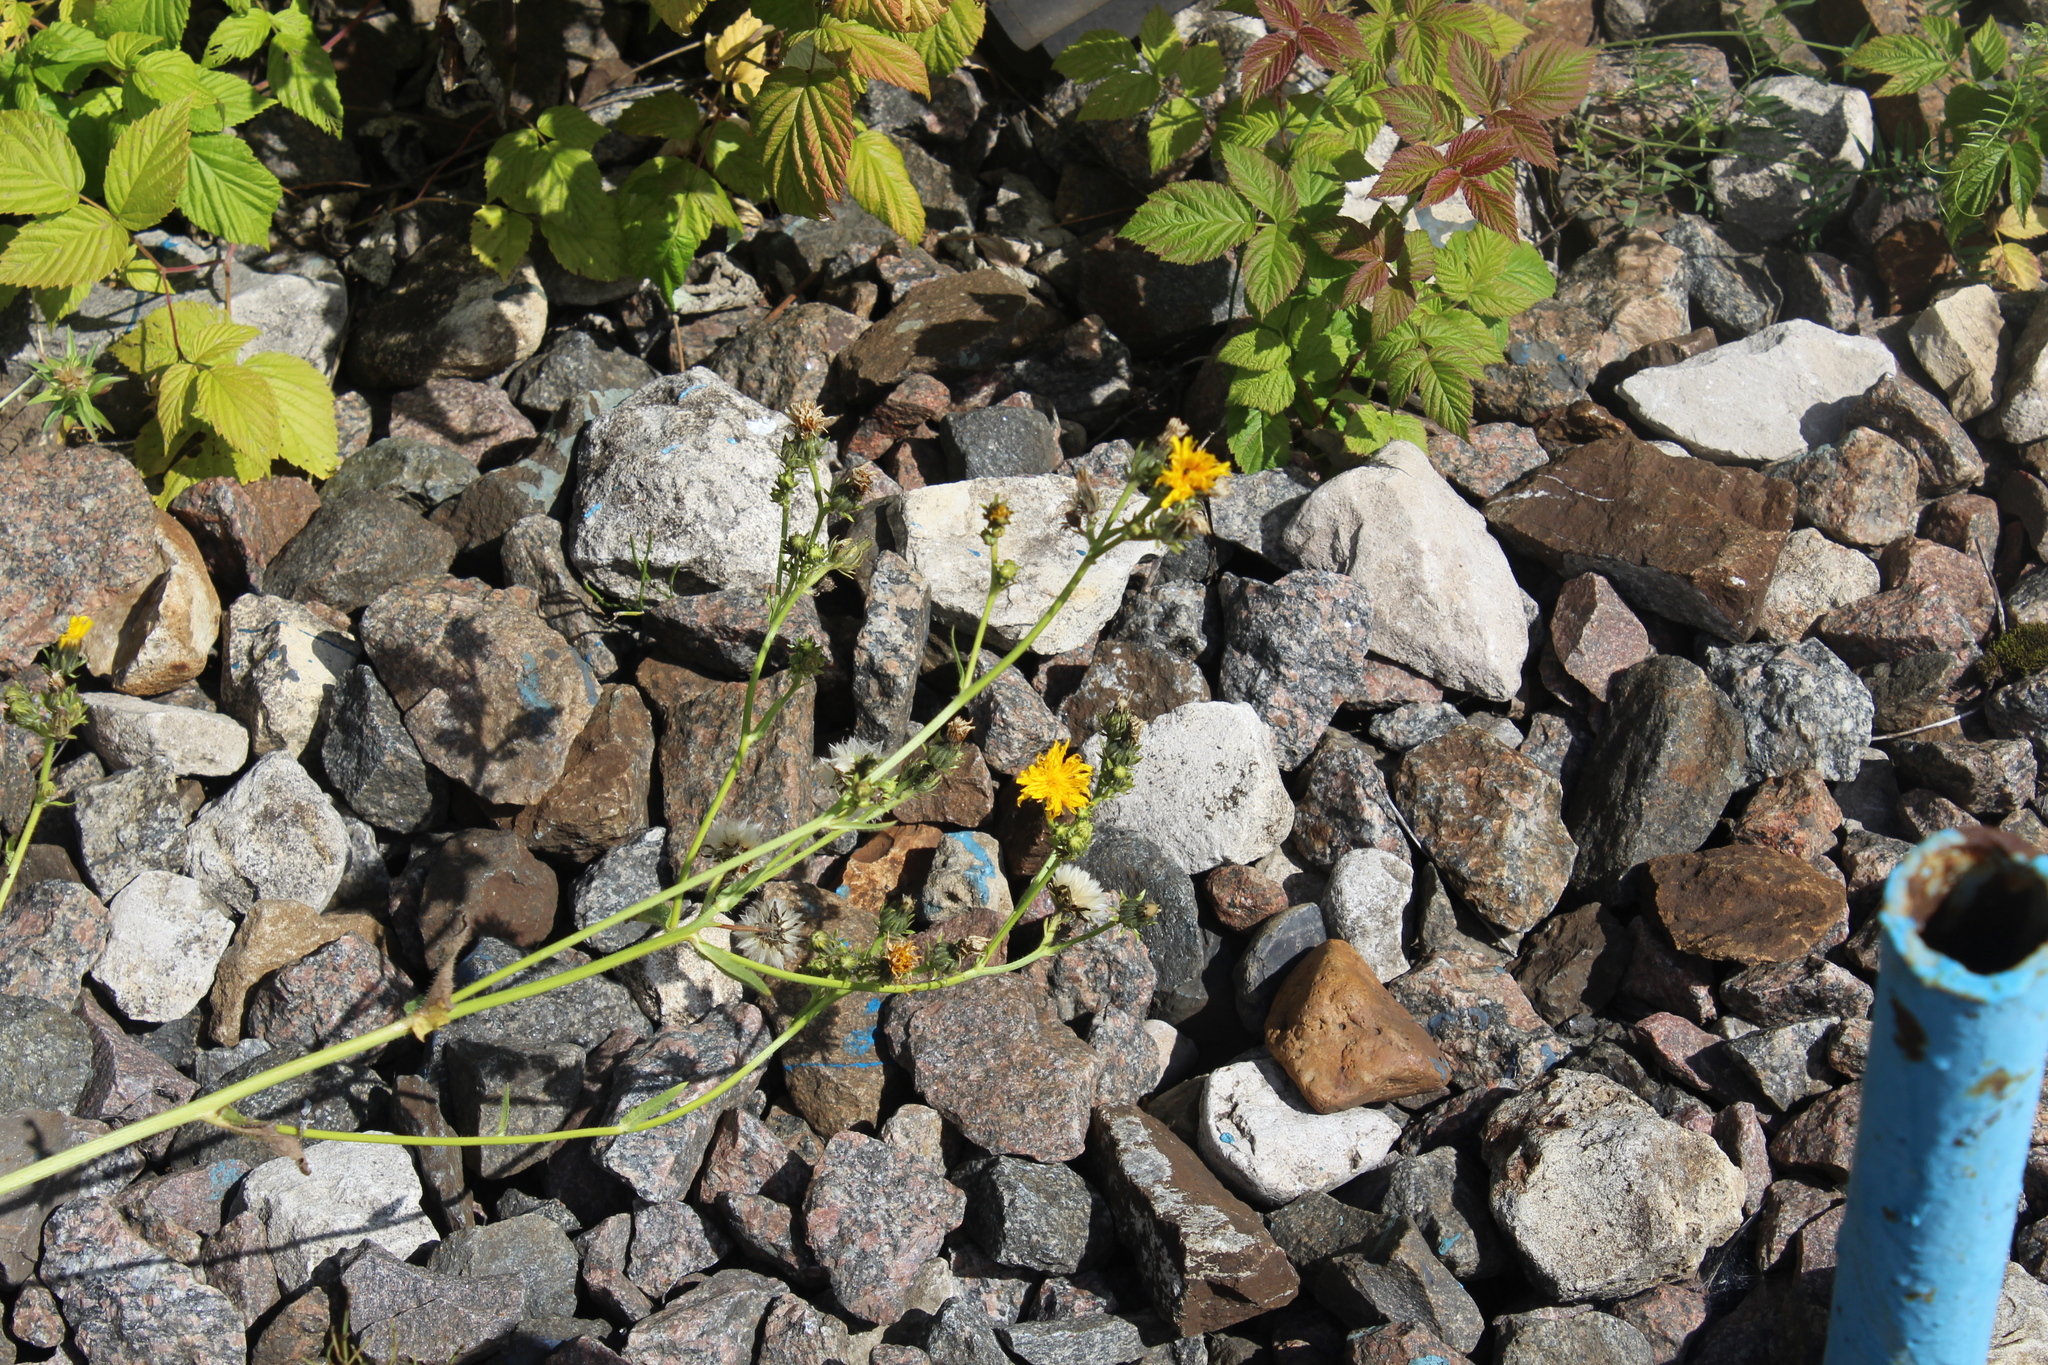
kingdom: Plantae
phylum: Tracheophyta
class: Magnoliopsida
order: Asterales
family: Asteraceae
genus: Picris
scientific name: Picris hieracioides
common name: Hawkweed oxtongue
